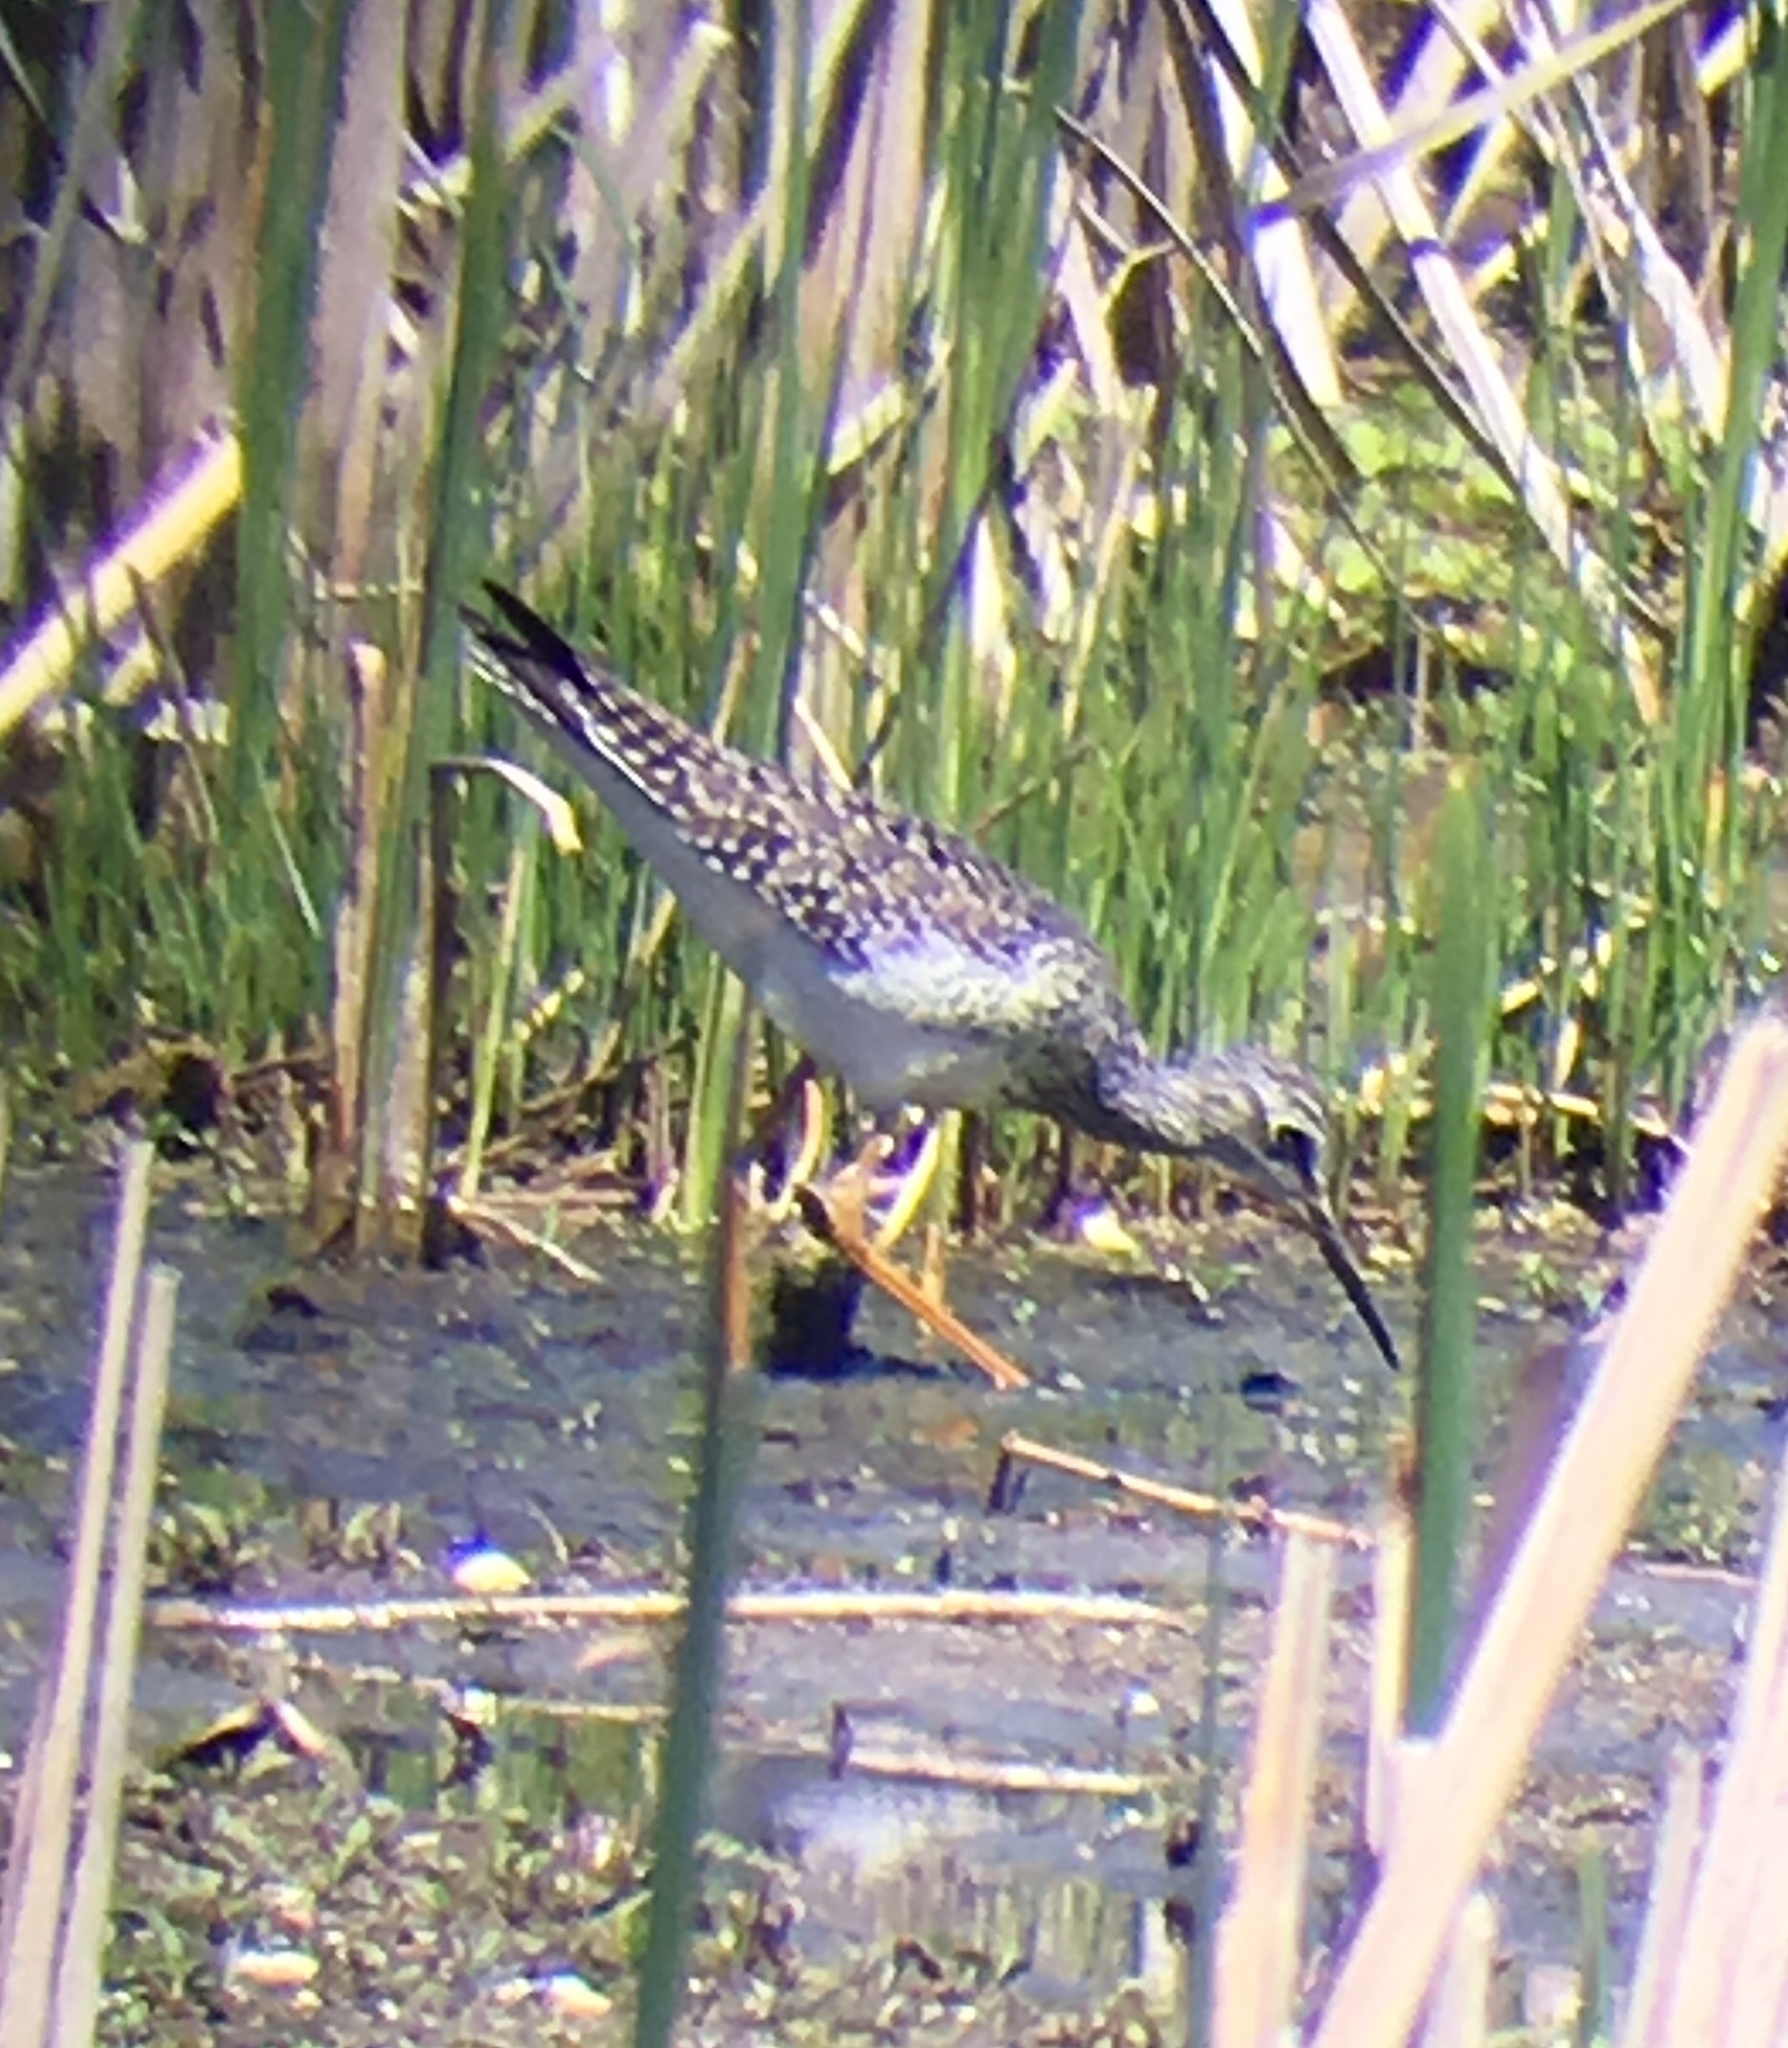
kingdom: Animalia
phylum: Chordata
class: Aves
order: Charadriiformes
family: Scolopacidae
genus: Tringa
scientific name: Tringa flavipes
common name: Lesser yellowlegs
